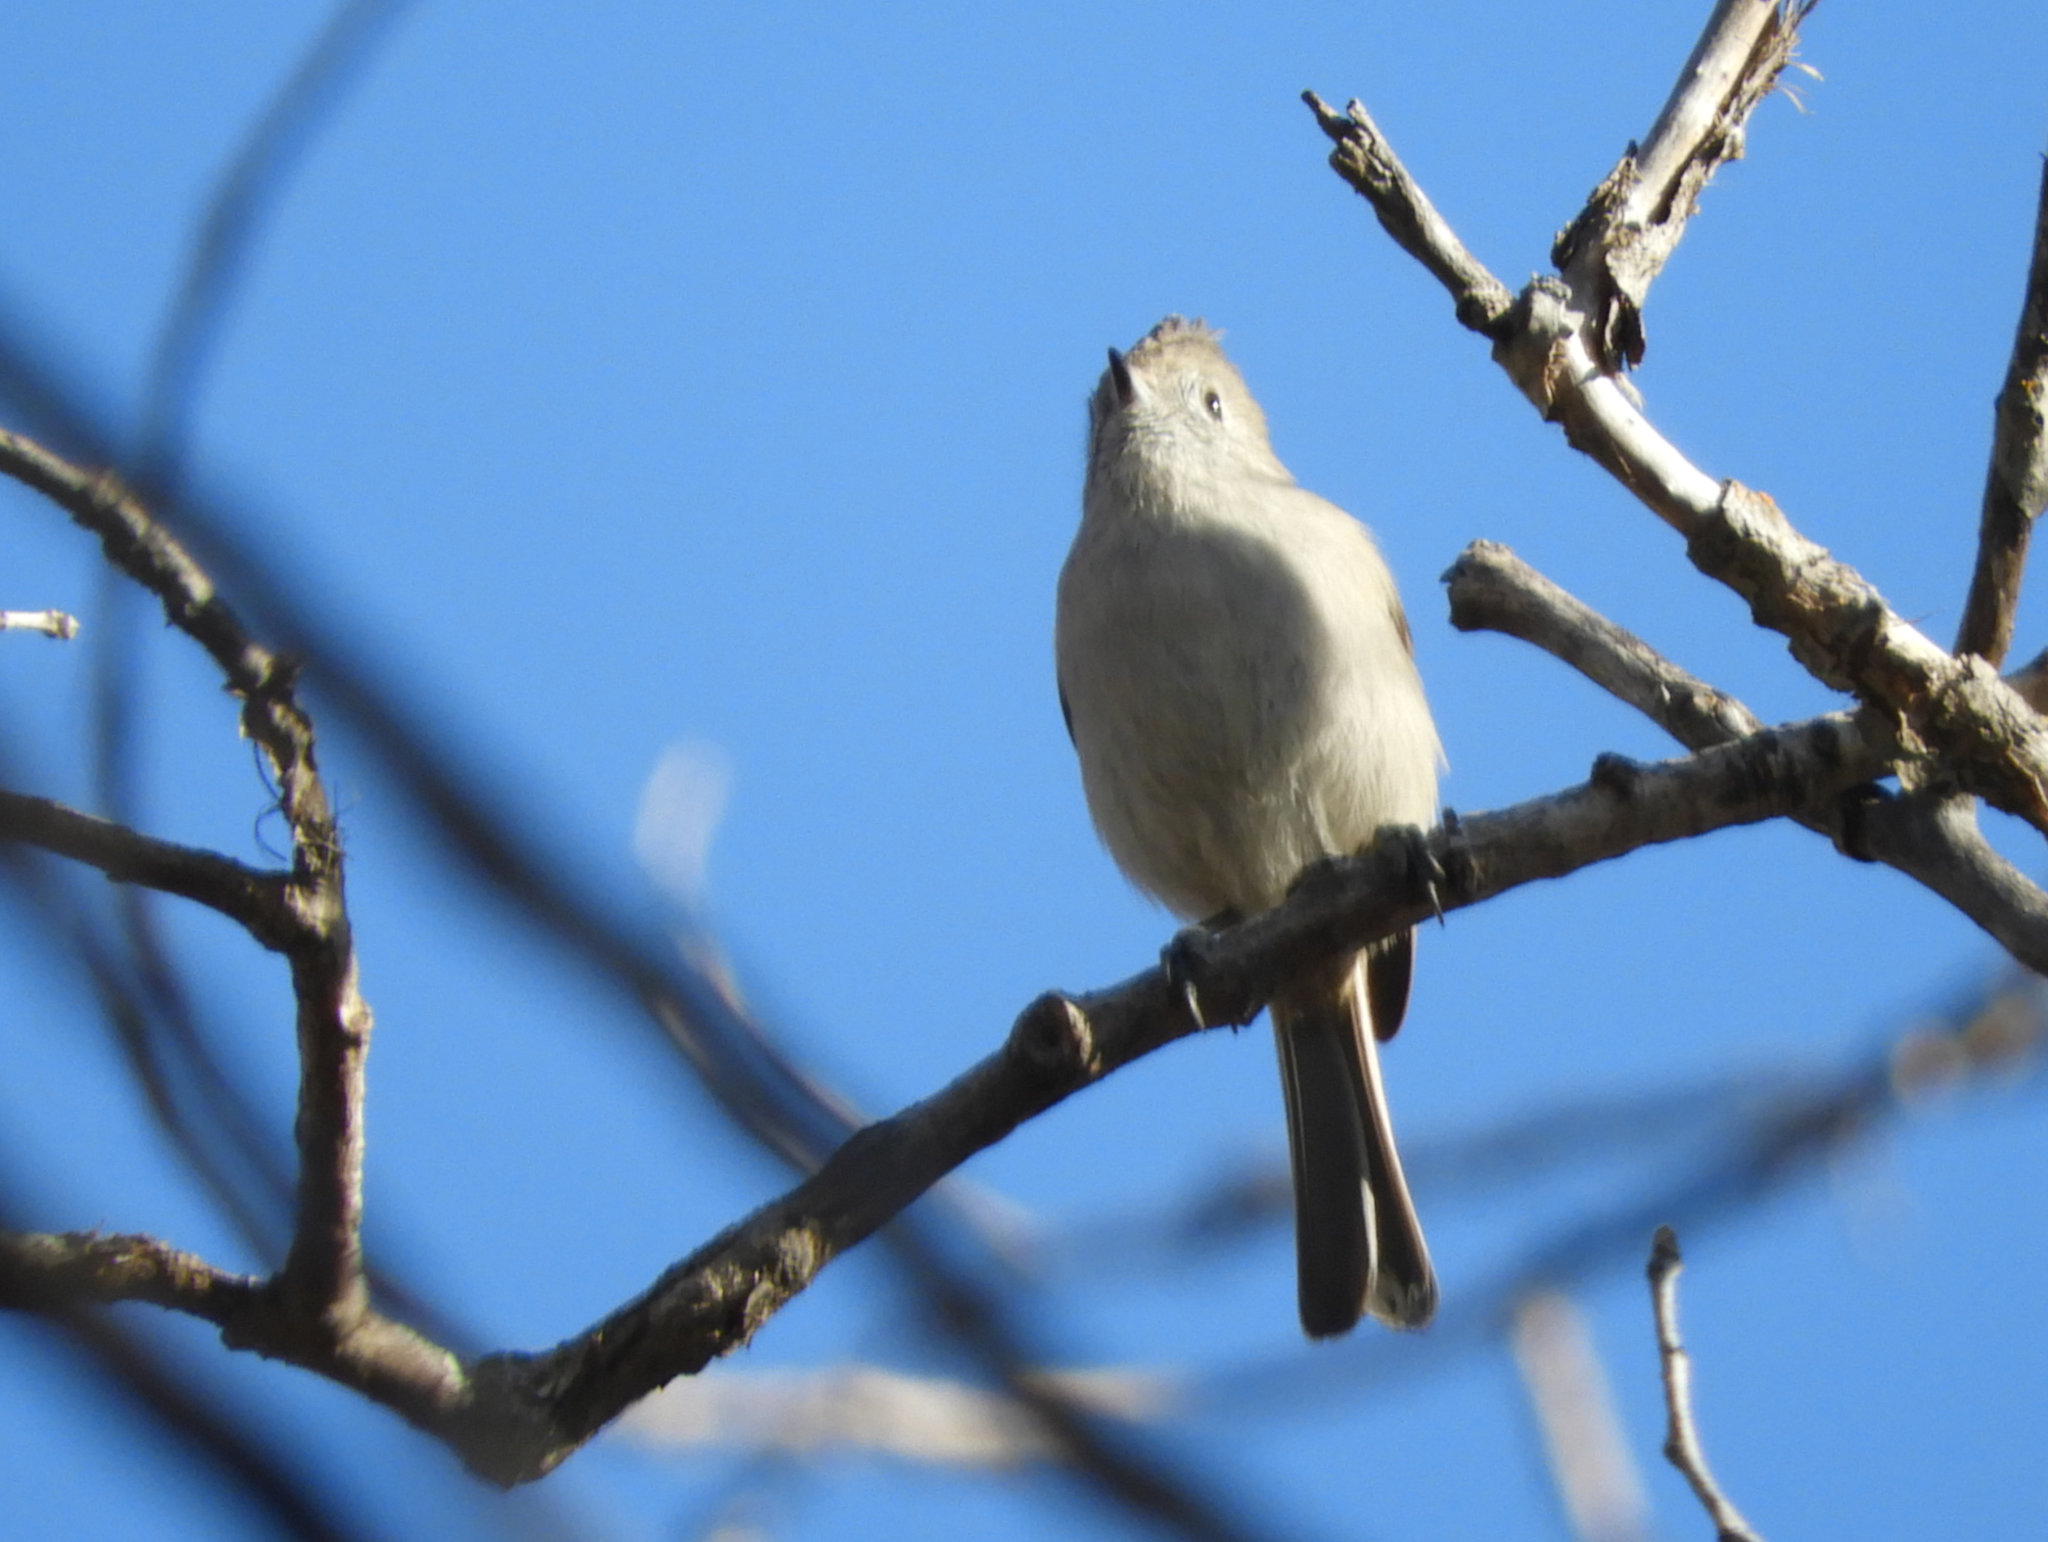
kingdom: Animalia
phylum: Chordata
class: Aves
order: Passeriformes
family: Paridae
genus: Baeolophus
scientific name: Baeolophus inornatus
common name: Oak titmouse
